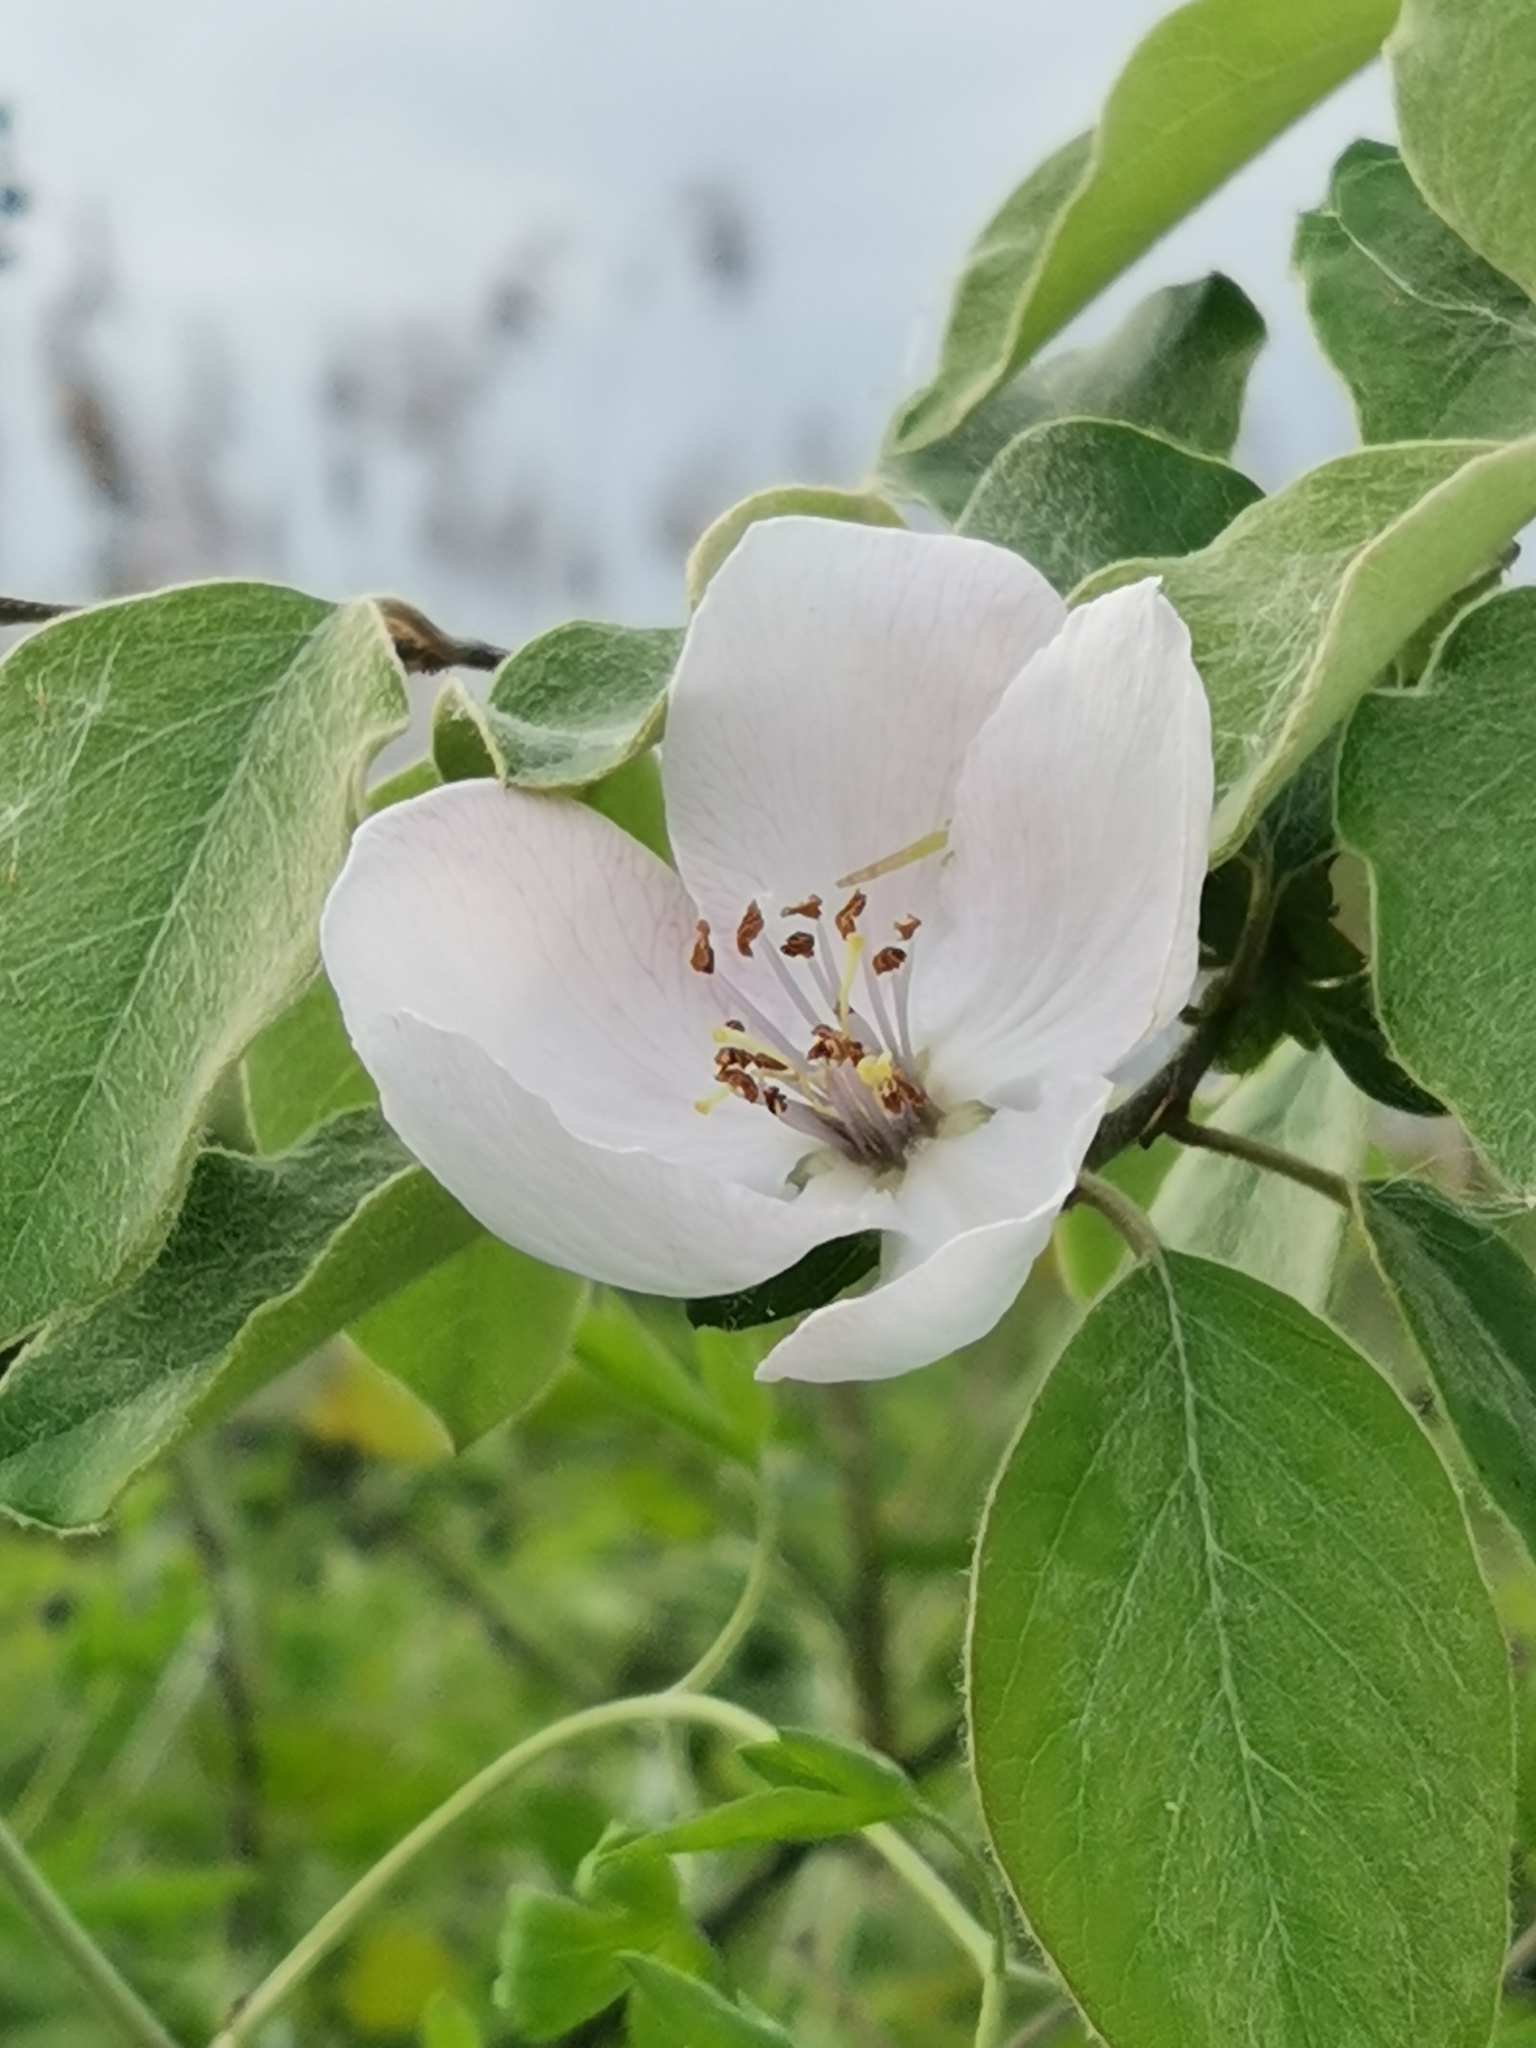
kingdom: Plantae
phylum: Tracheophyta
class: Magnoliopsida
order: Rosales
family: Rosaceae
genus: Cydonia
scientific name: Cydonia oblonga
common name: Quince
